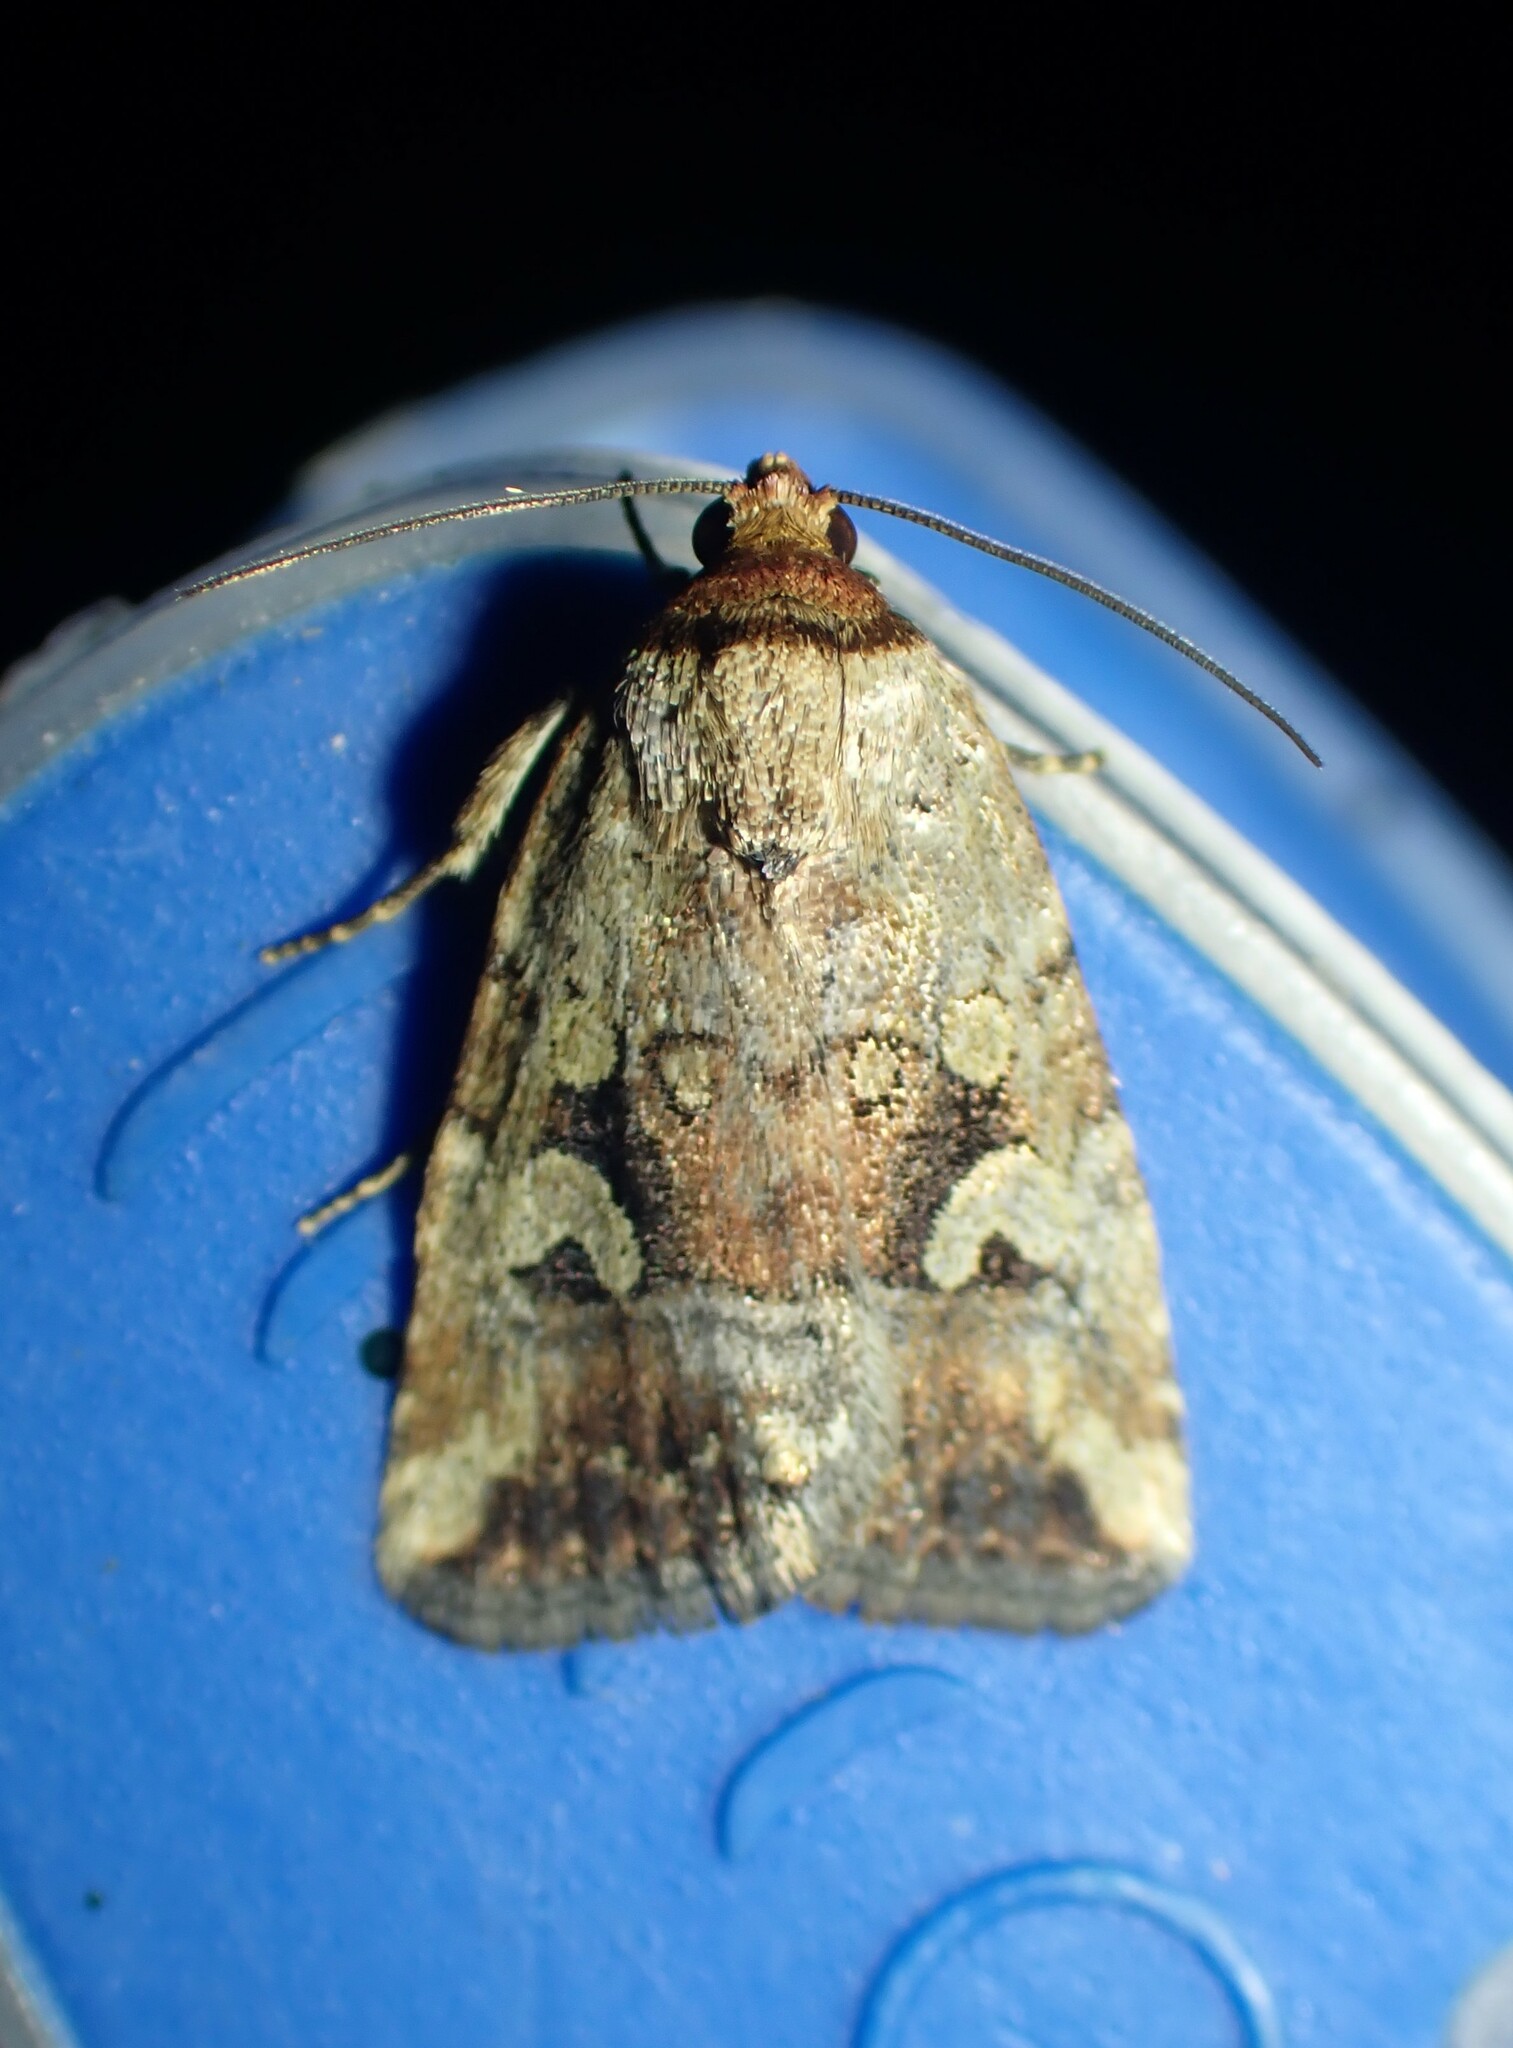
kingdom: Animalia
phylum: Arthropoda
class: Insecta
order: Lepidoptera
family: Noctuidae
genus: Elaphria
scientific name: Elaphria alapallida
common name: Pale-winged midget
